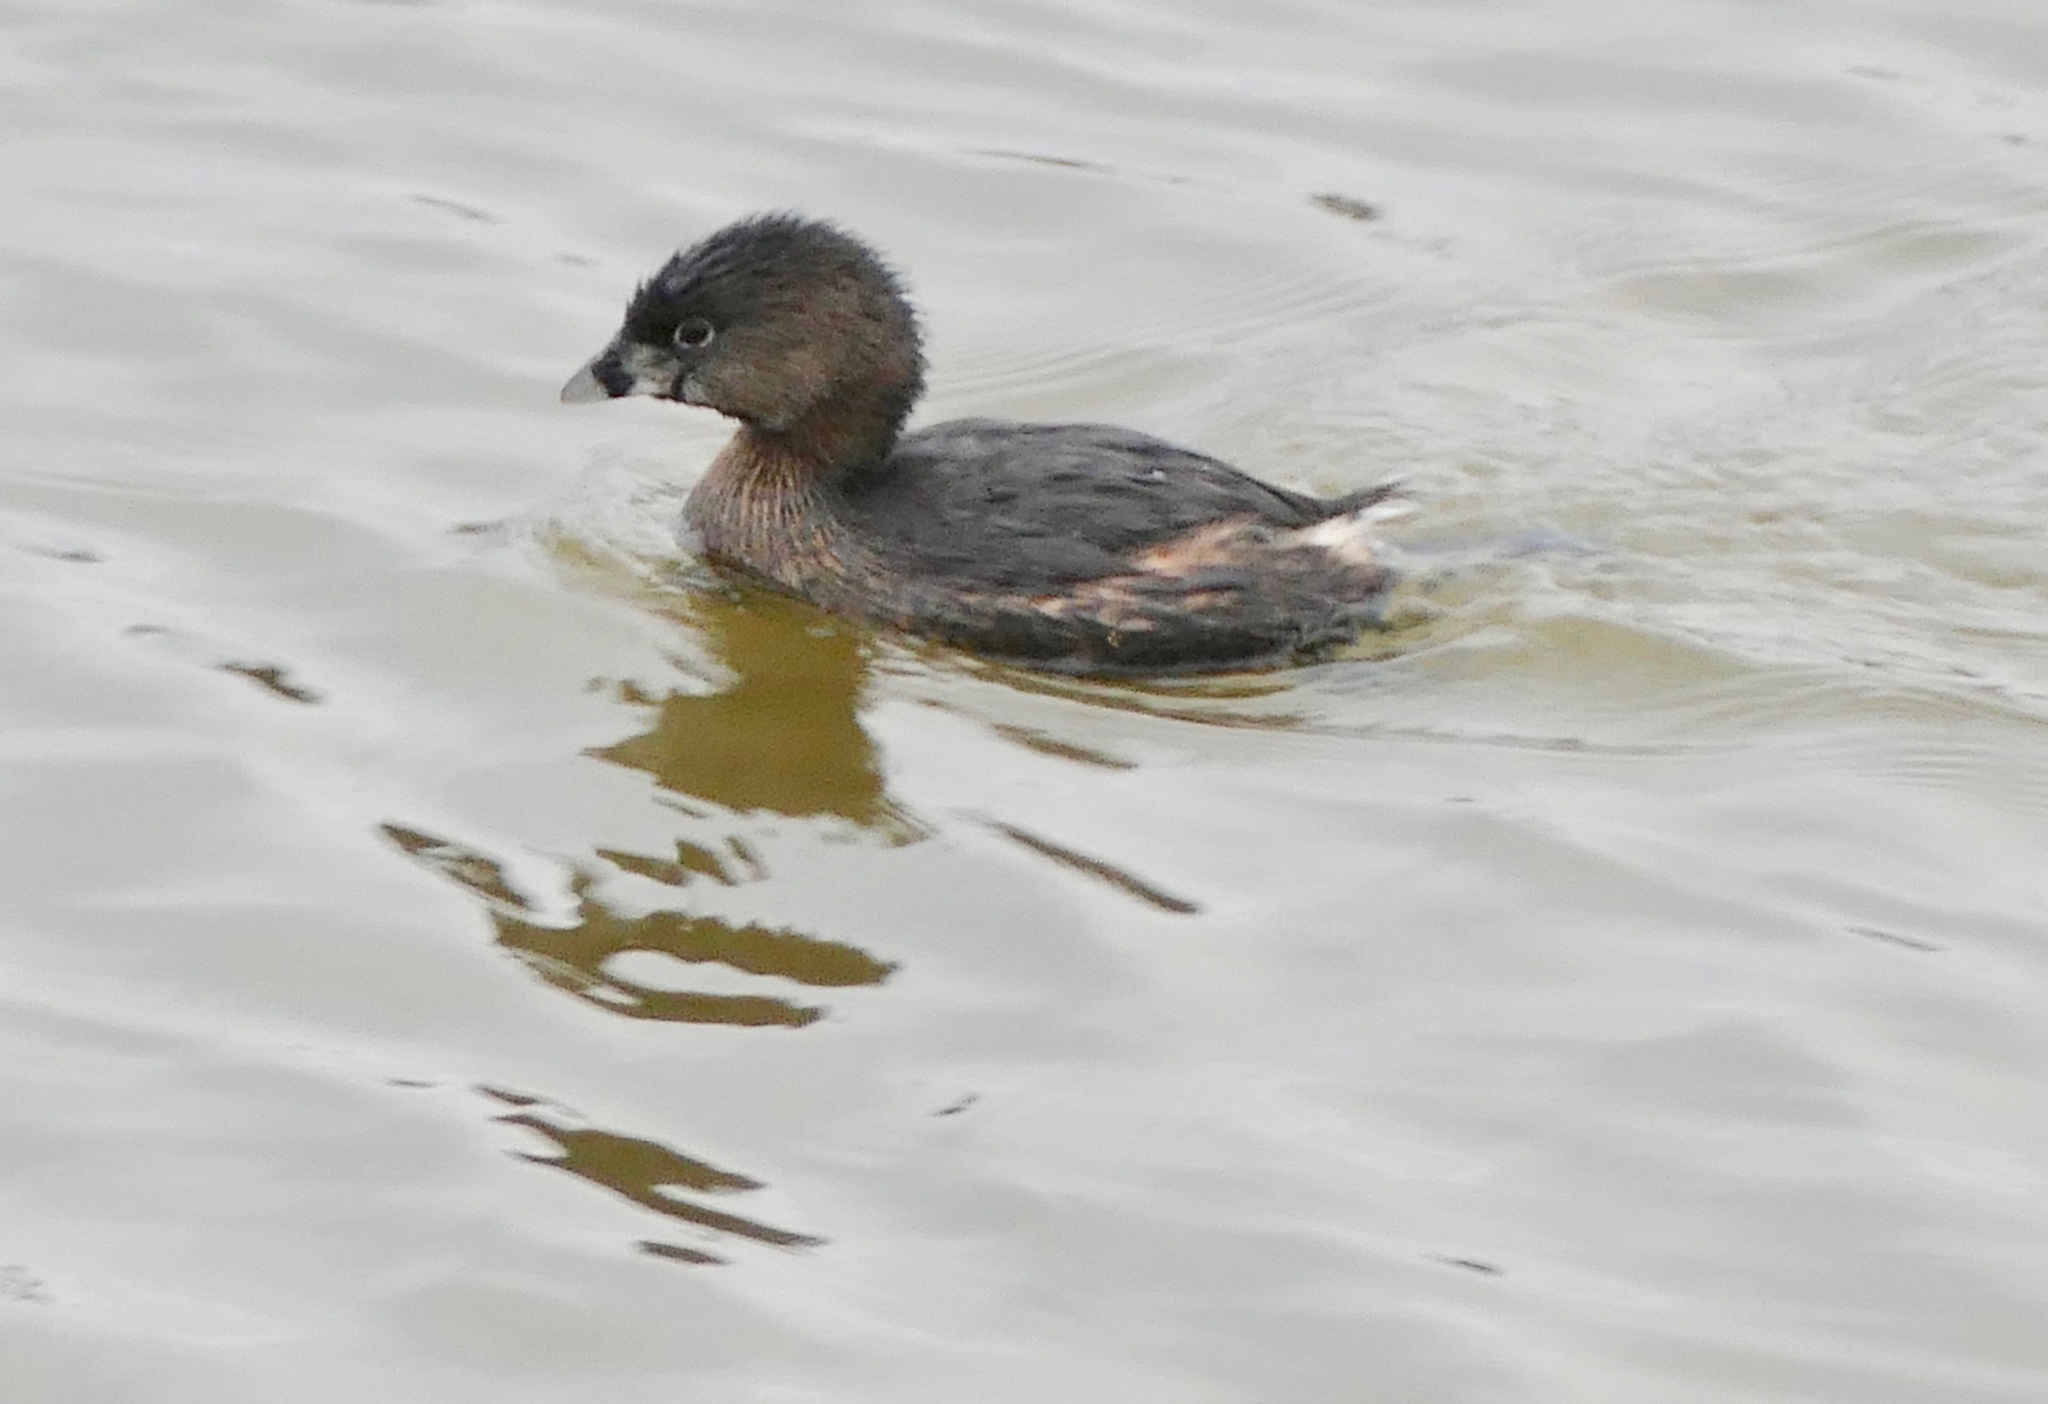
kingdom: Animalia
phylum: Chordata
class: Aves
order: Podicipediformes
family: Podicipedidae
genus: Podilymbus
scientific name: Podilymbus podiceps
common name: Pied-billed grebe
